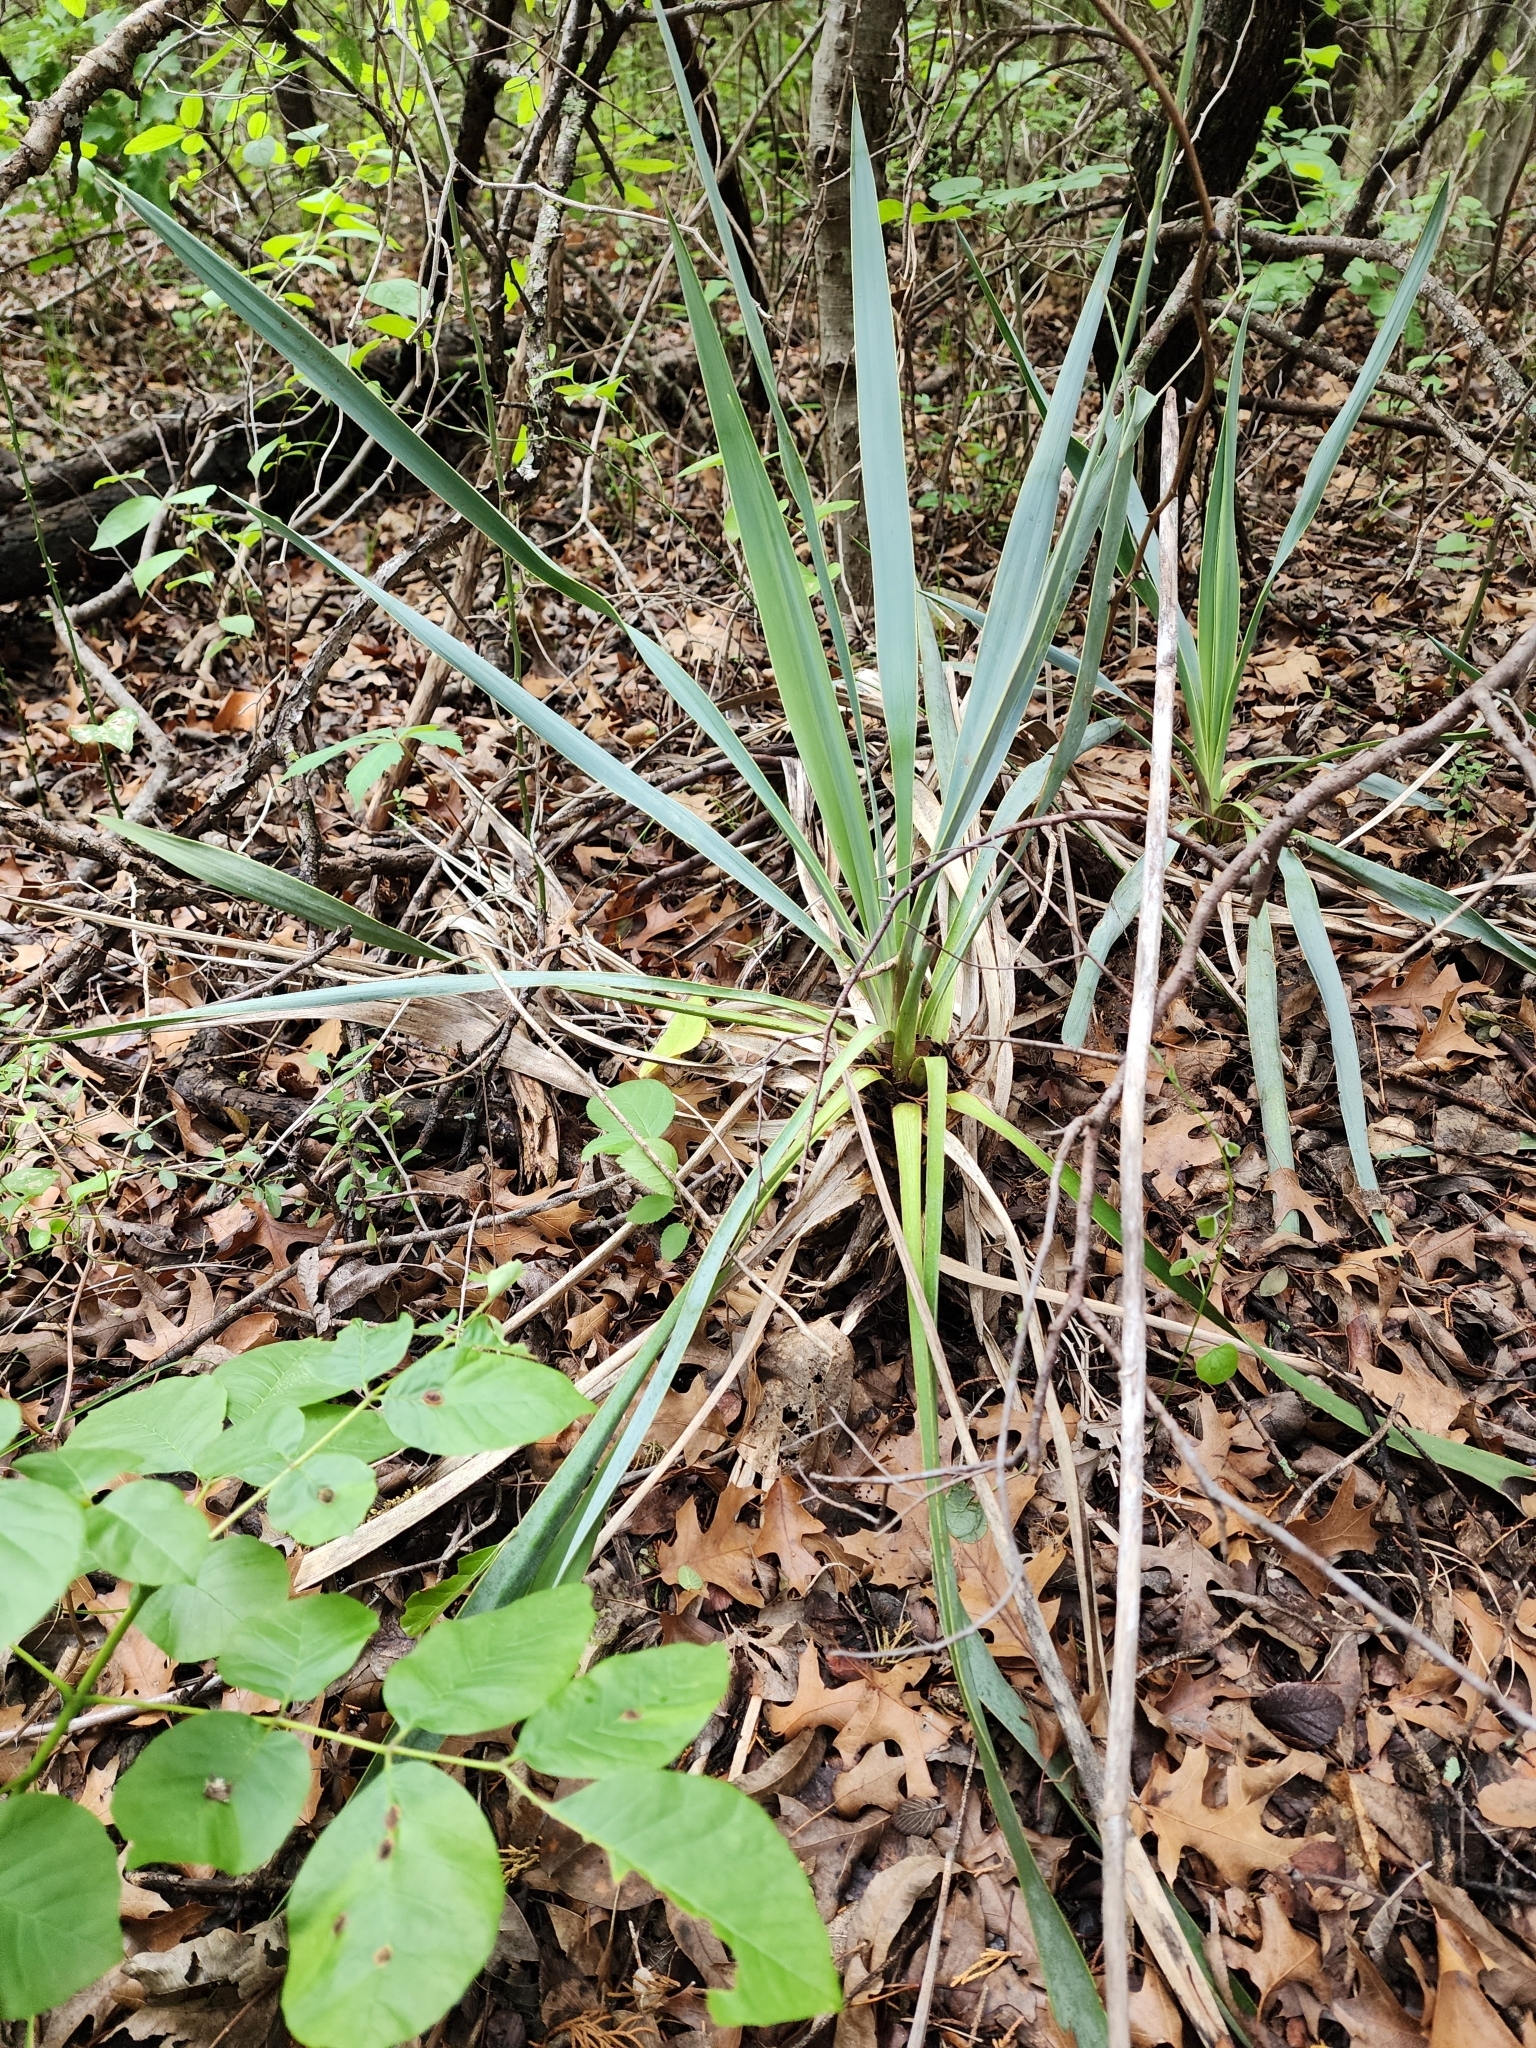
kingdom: Plantae
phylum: Tracheophyta
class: Liliopsida
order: Asparagales
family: Asparagaceae
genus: Yucca
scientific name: Yucca pallida
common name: Pale leaf yucca
